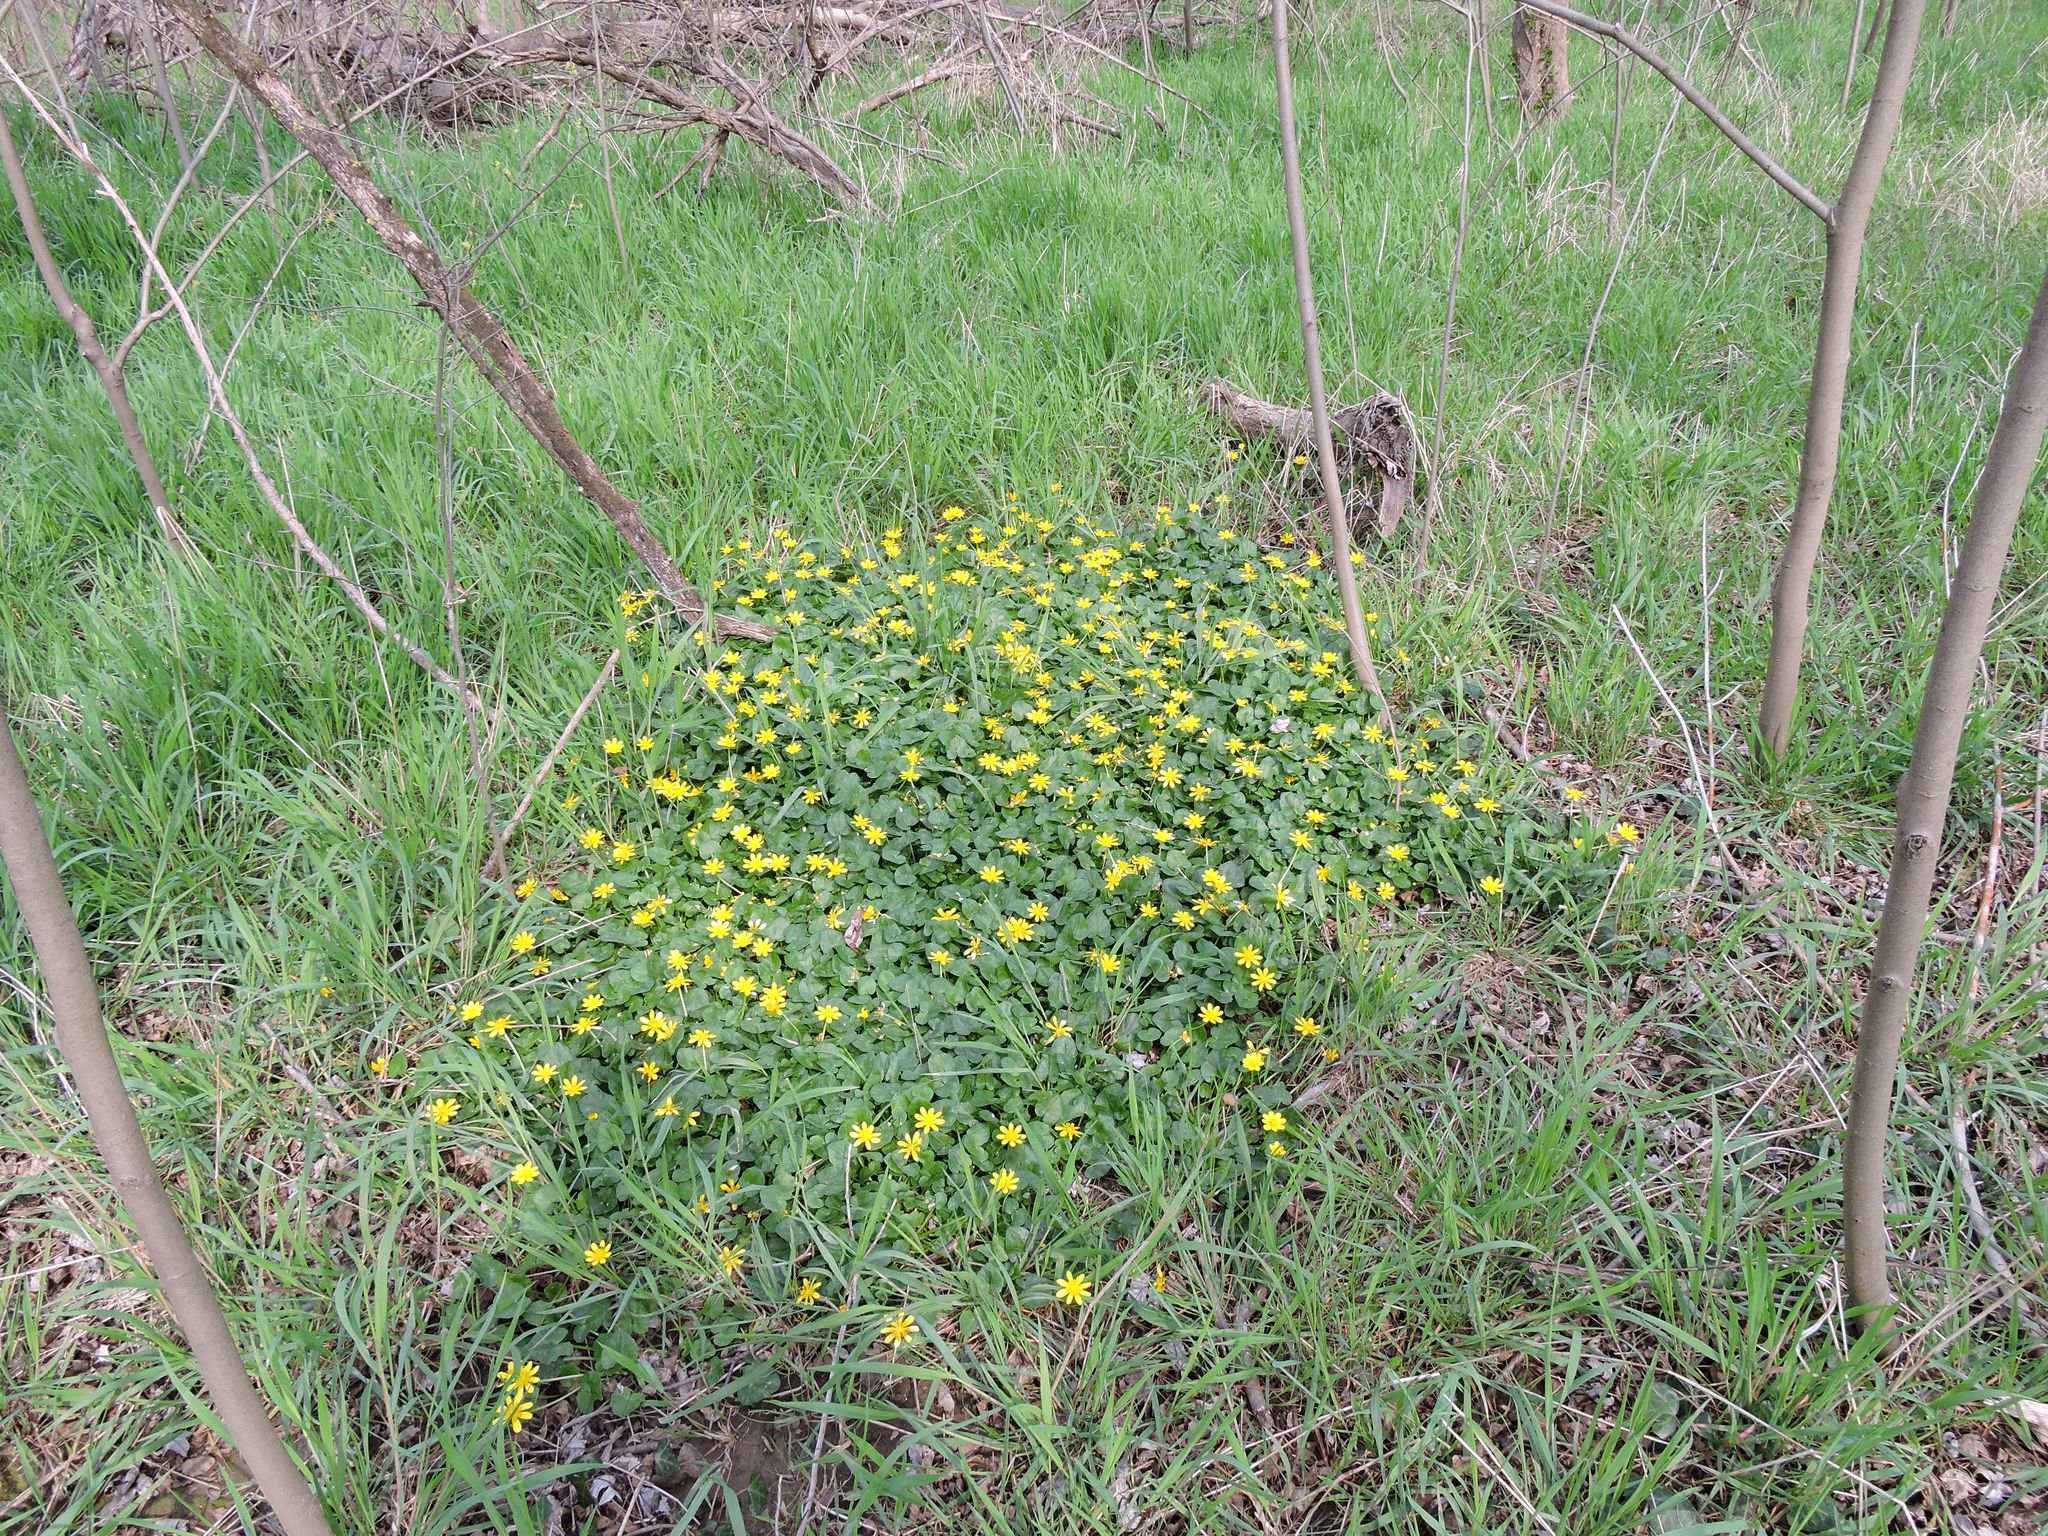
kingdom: Plantae
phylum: Tracheophyta
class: Magnoliopsida
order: Ranunculales
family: Ranunculaceae
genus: Ficaria
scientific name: Ficaria verna
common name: Lesser celandine
